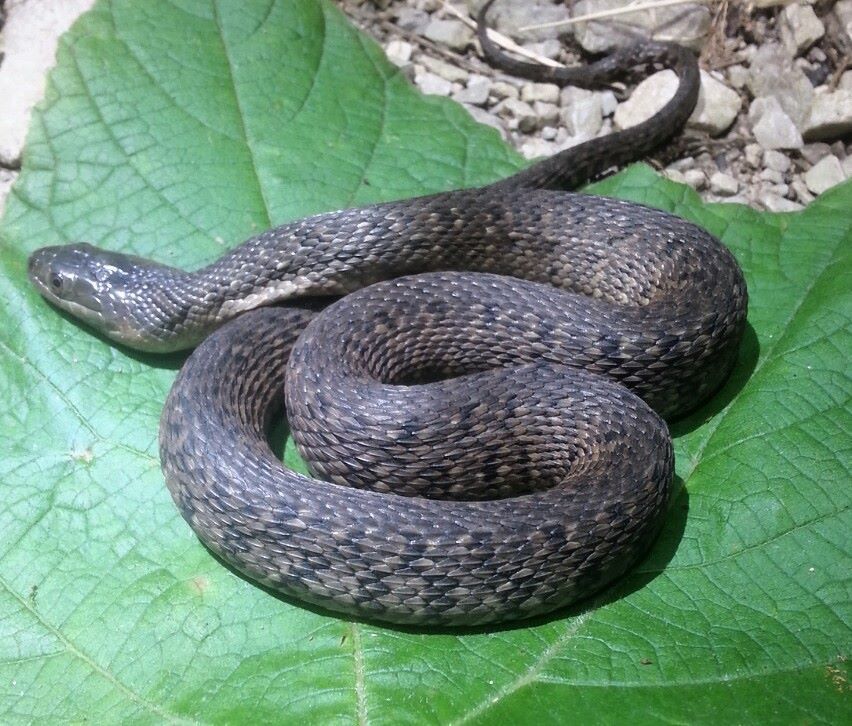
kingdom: Animalia
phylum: Chordata
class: Squamata
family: Colubridae
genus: Nerodia
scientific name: Nerodia cyclopion
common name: Mississippi green water snake
